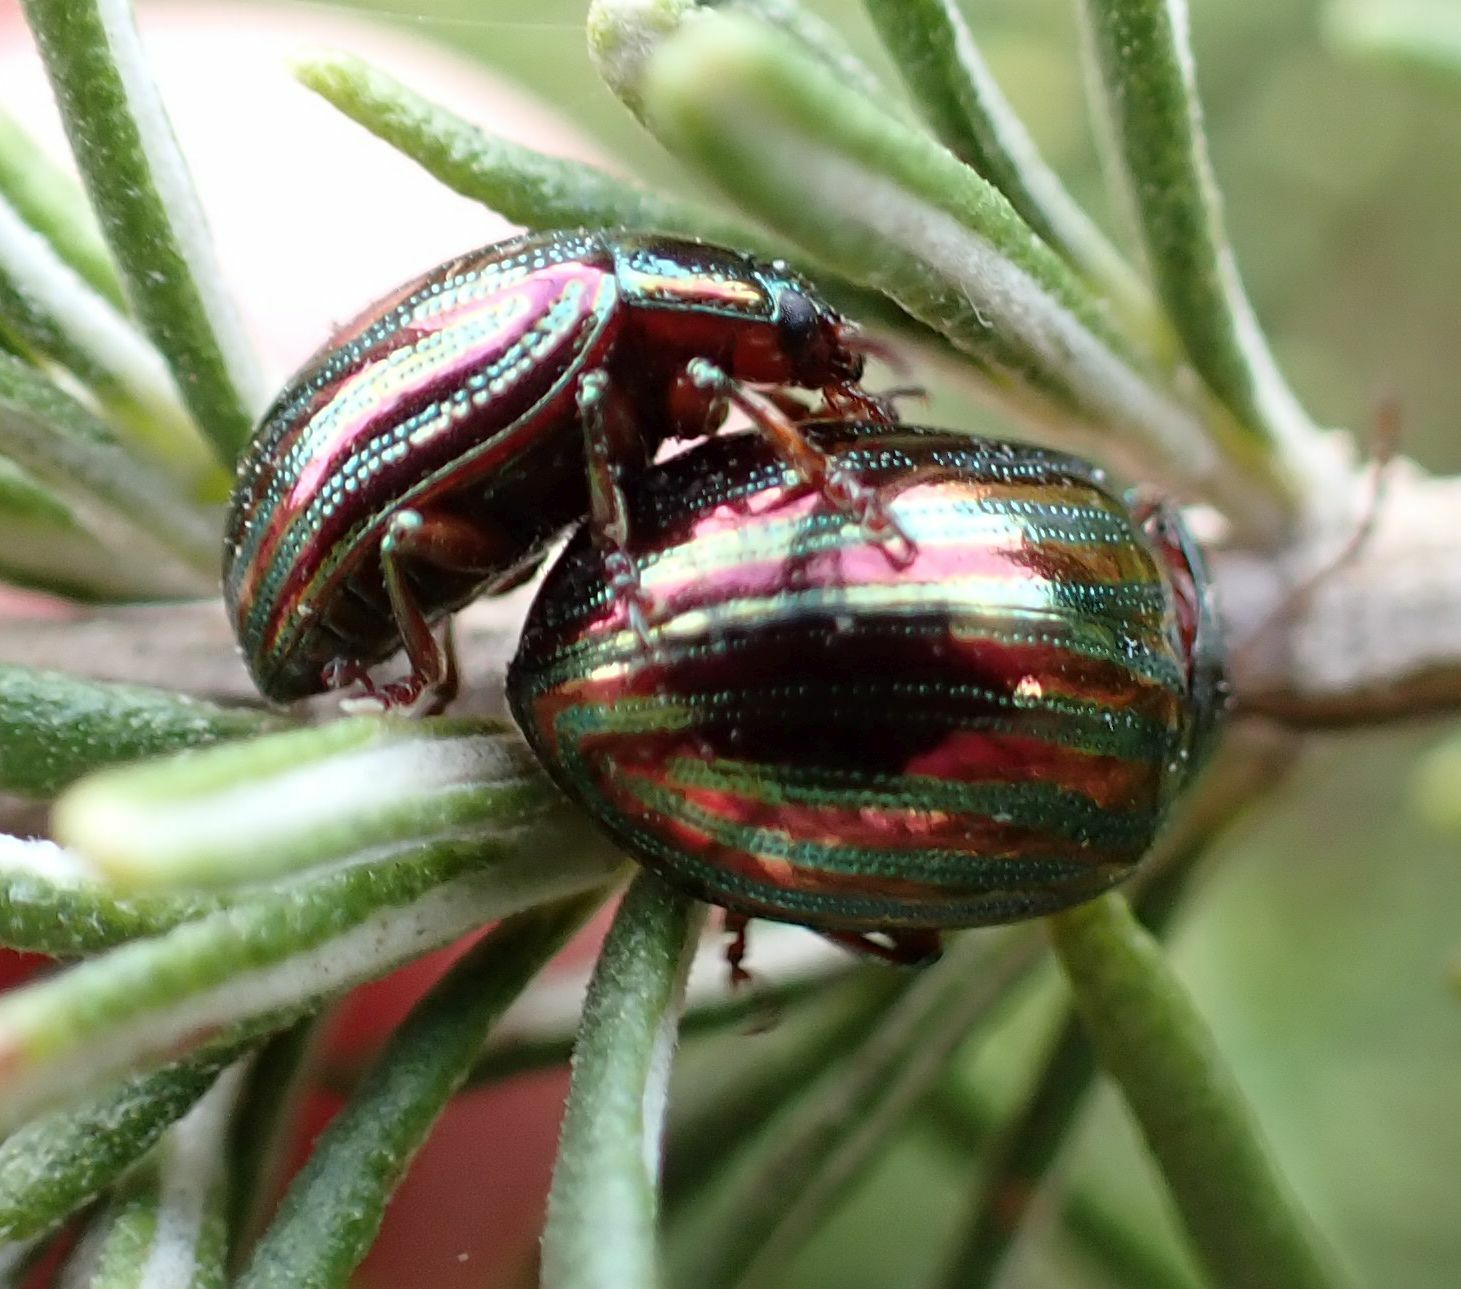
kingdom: Animalia
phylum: Arthropoda
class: Insecta
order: Coleoptera
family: Chrysomelidae
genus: Chrysolina
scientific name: Chrysolina americana
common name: Rosemary beetle
